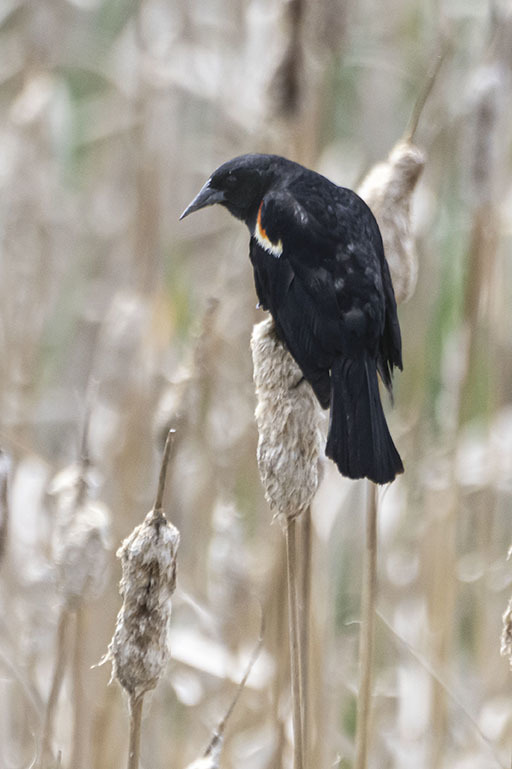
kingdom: Animalia
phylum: Chordata
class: Aves
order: Passeriformes
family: Icteridae
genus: Agelaius
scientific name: Agelaius phoeniceus
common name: Red-winged blackbird
